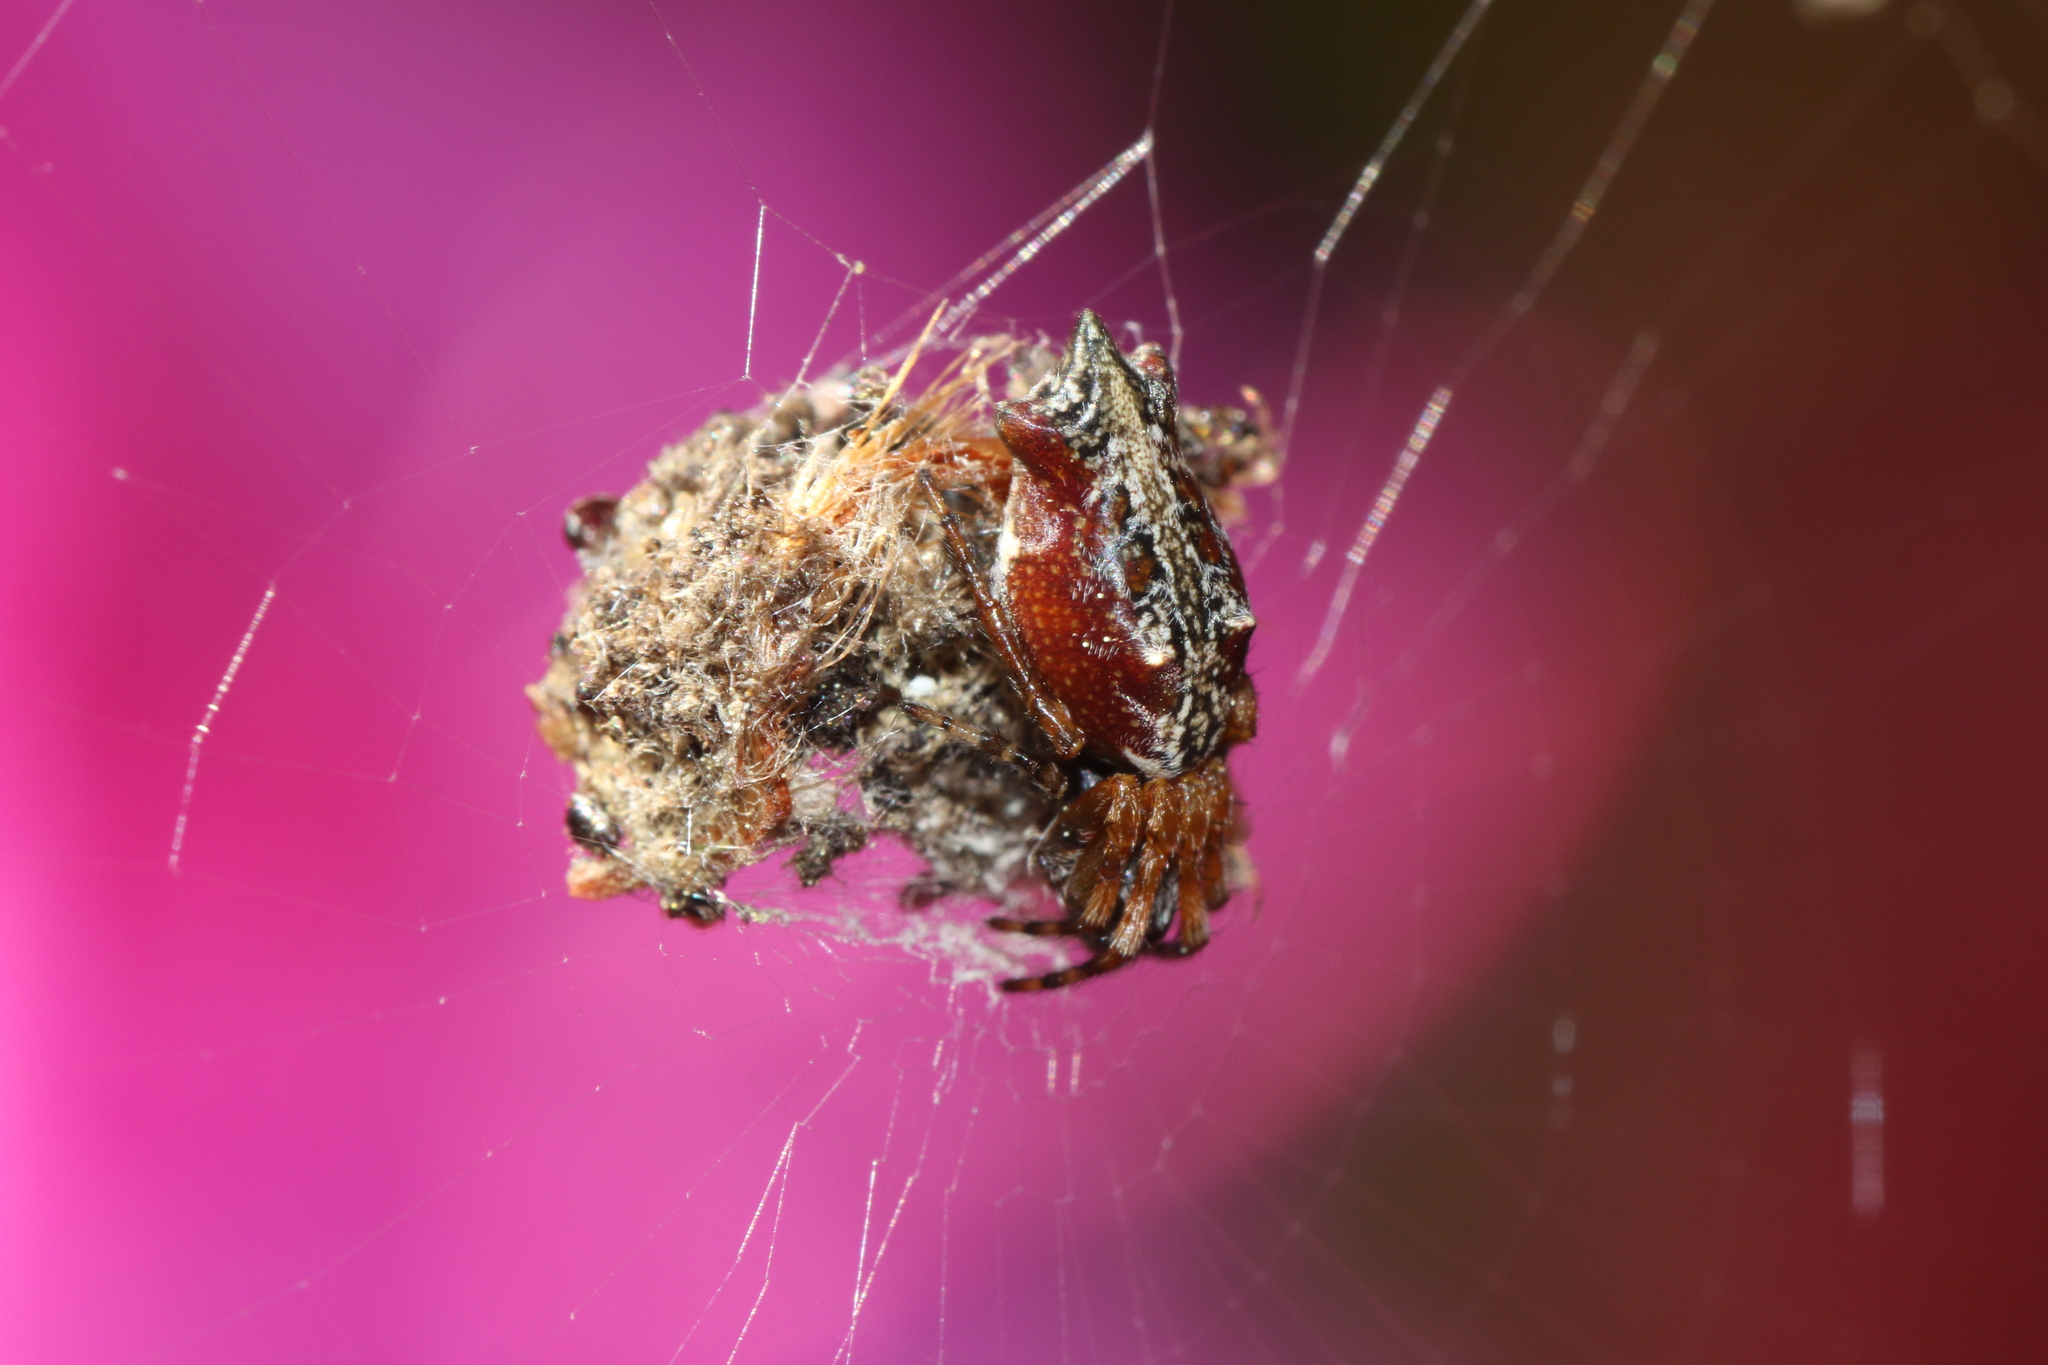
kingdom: Animalia
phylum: Arthropoda
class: Arachnida
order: Araneae
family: Araneidae
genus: Cyclosa
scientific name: Cyclosa bifurcata
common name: Orb weavers
